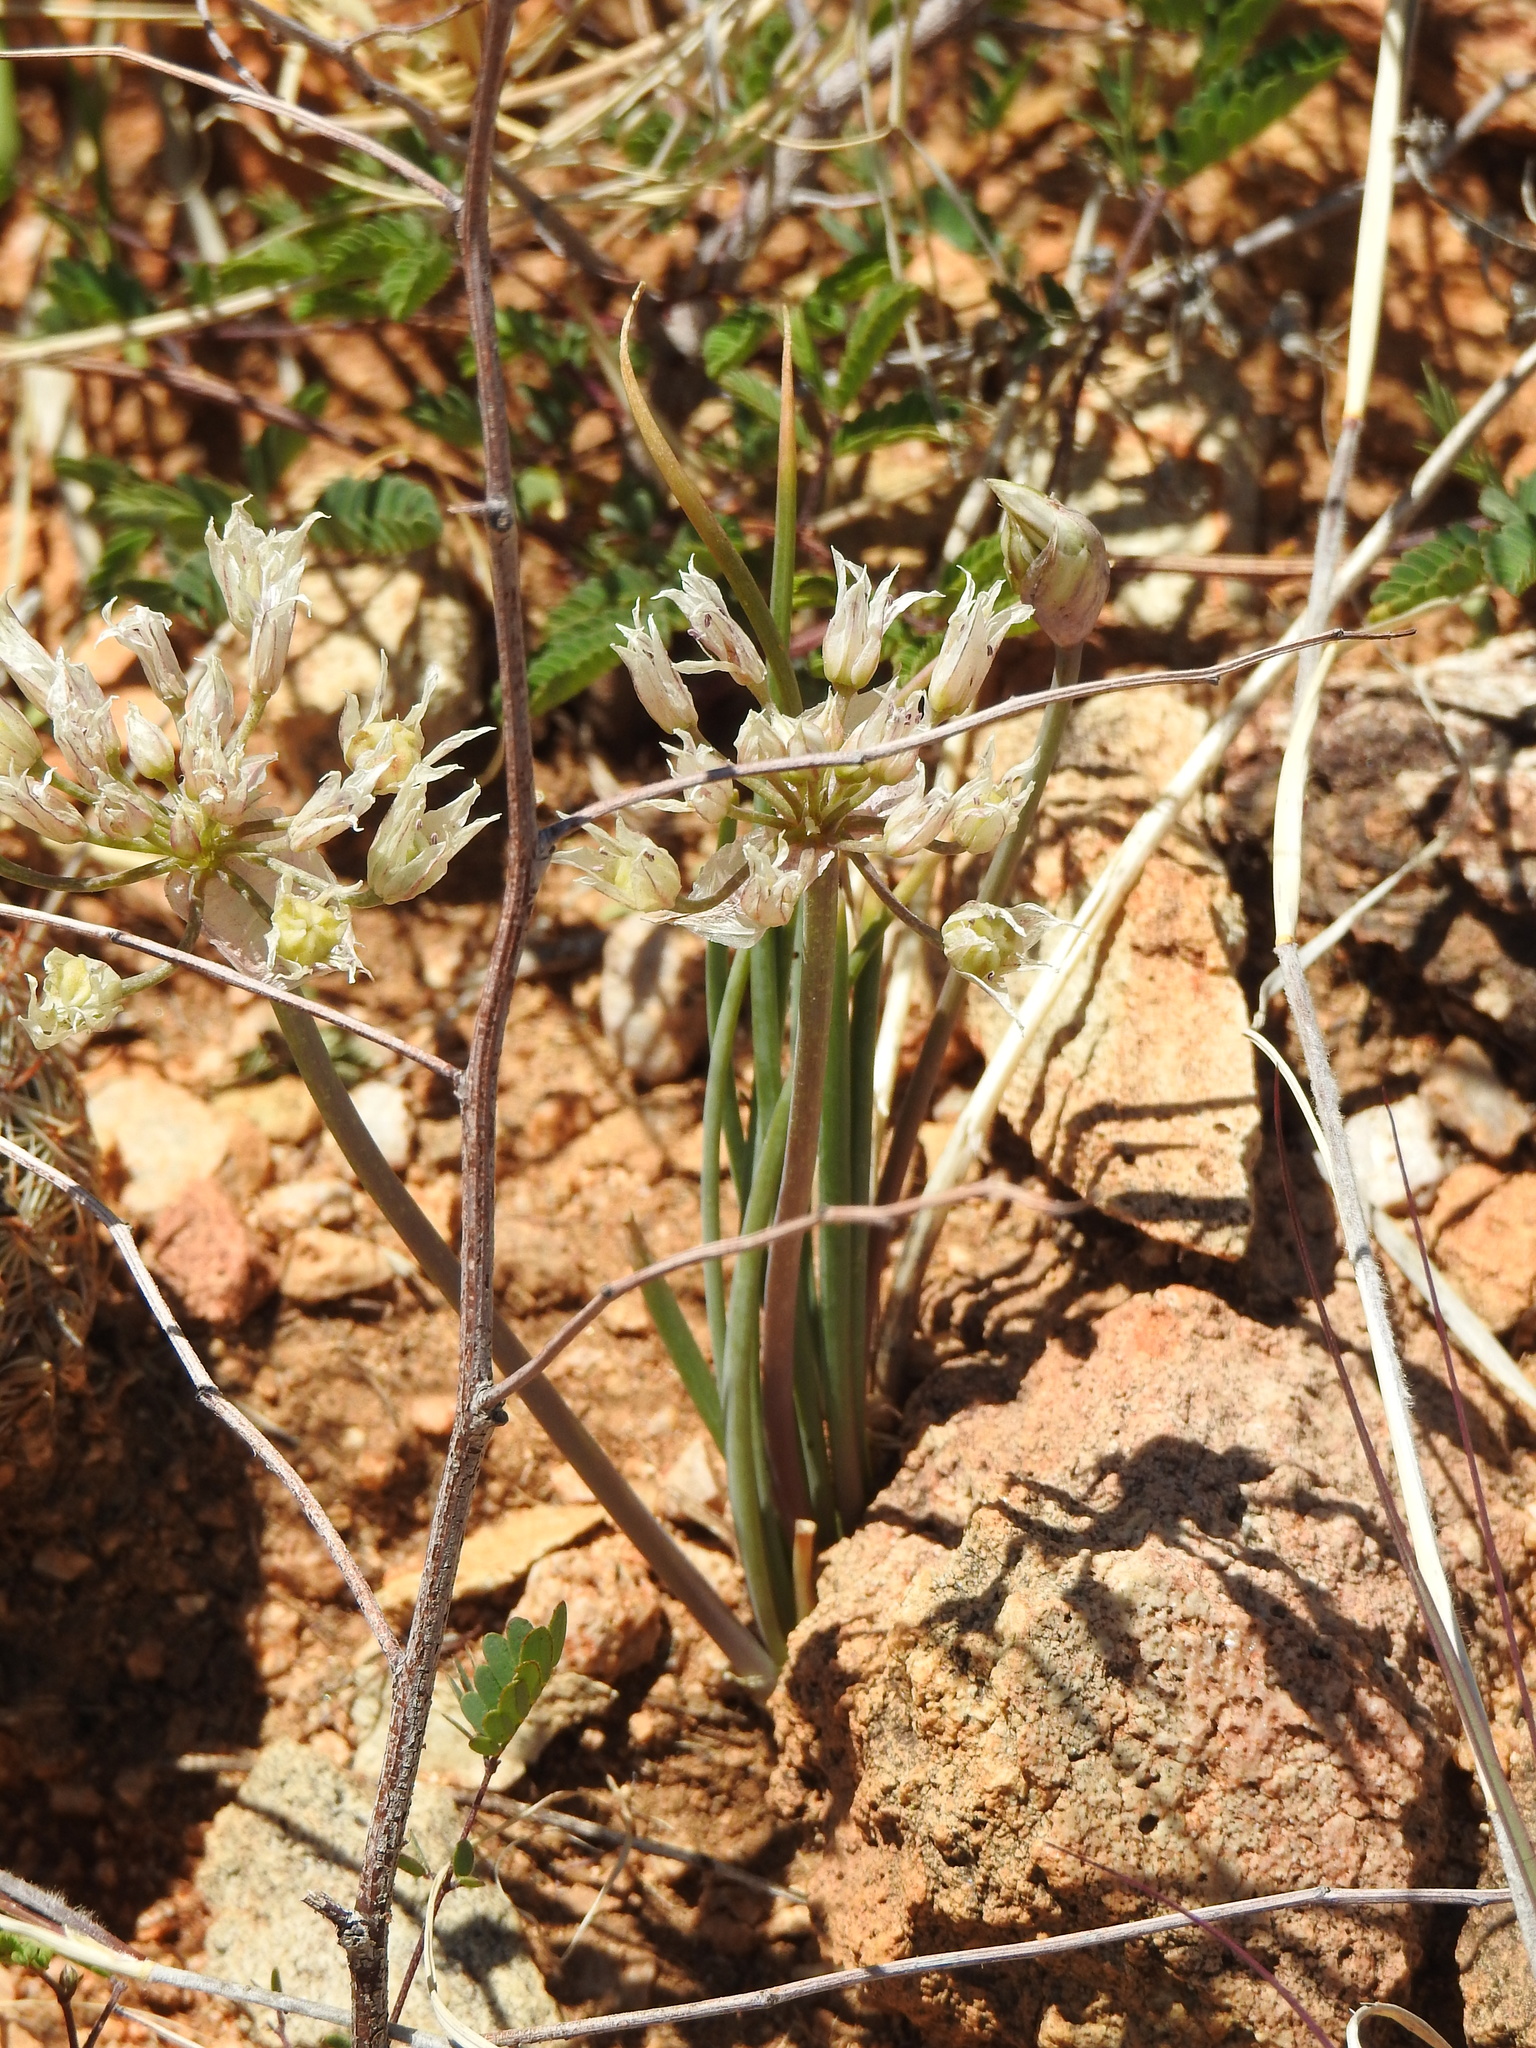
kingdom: Plantae
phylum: Tracheophyta
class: Liliopsida
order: Asparagales
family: Amaryllidaceae
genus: Allium
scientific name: Allium macropetalum
